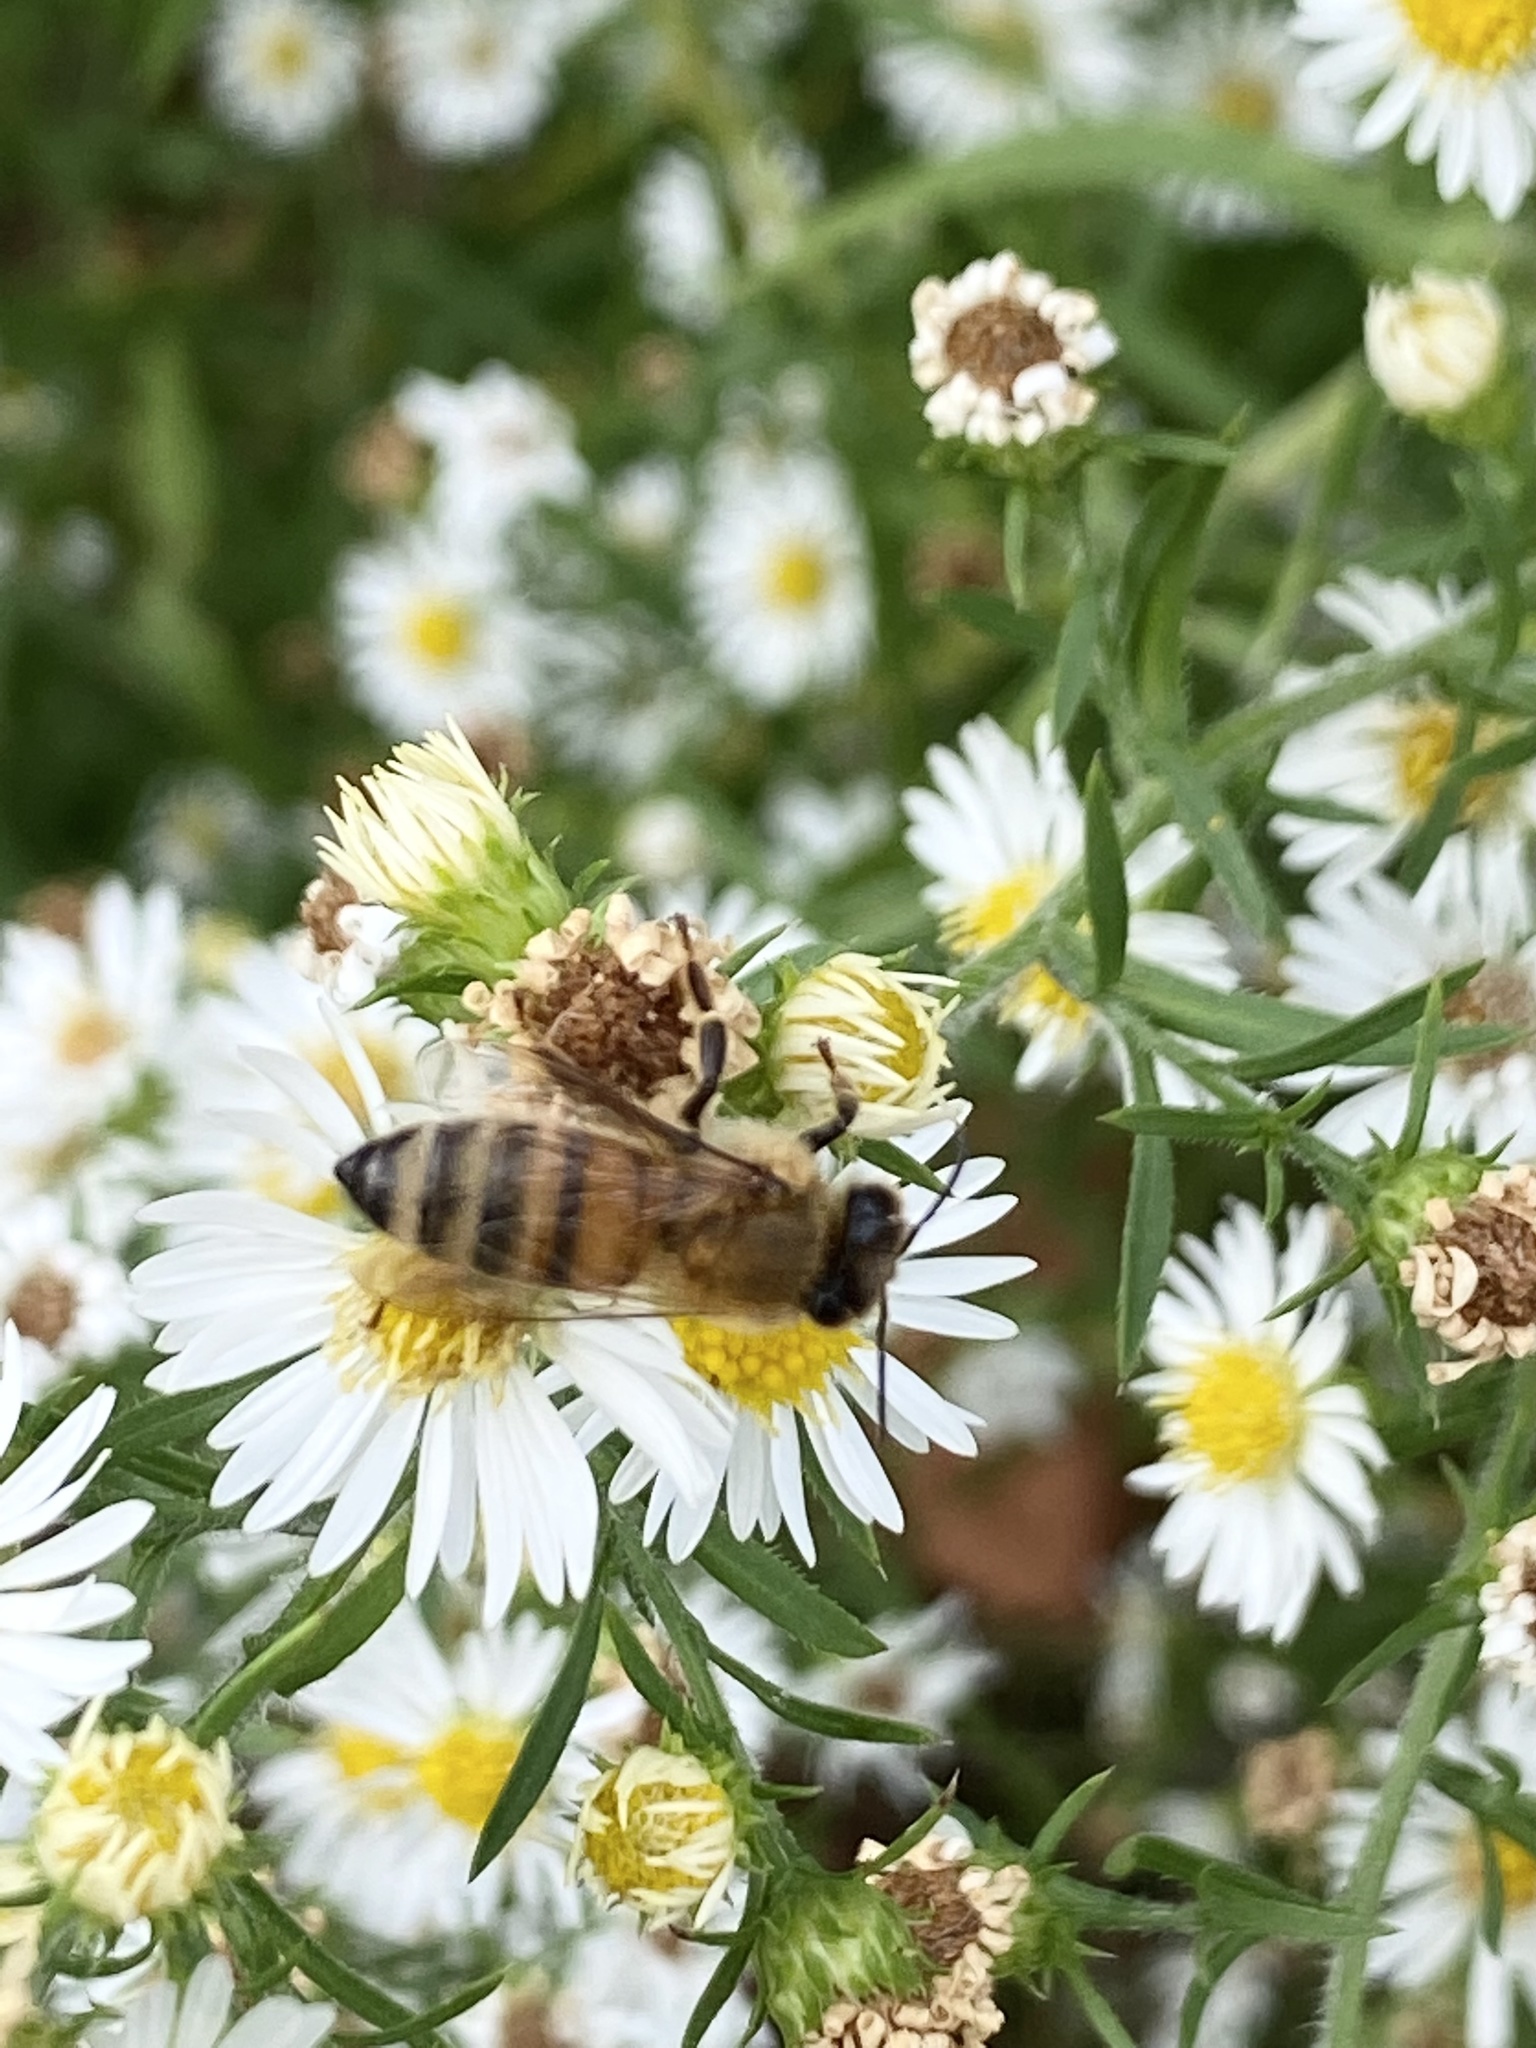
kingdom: Animalia
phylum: Arthropoda
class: Insecta
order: Hymenoptera
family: Apidae
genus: Apis
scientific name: Apis mellifera
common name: Honey bee
